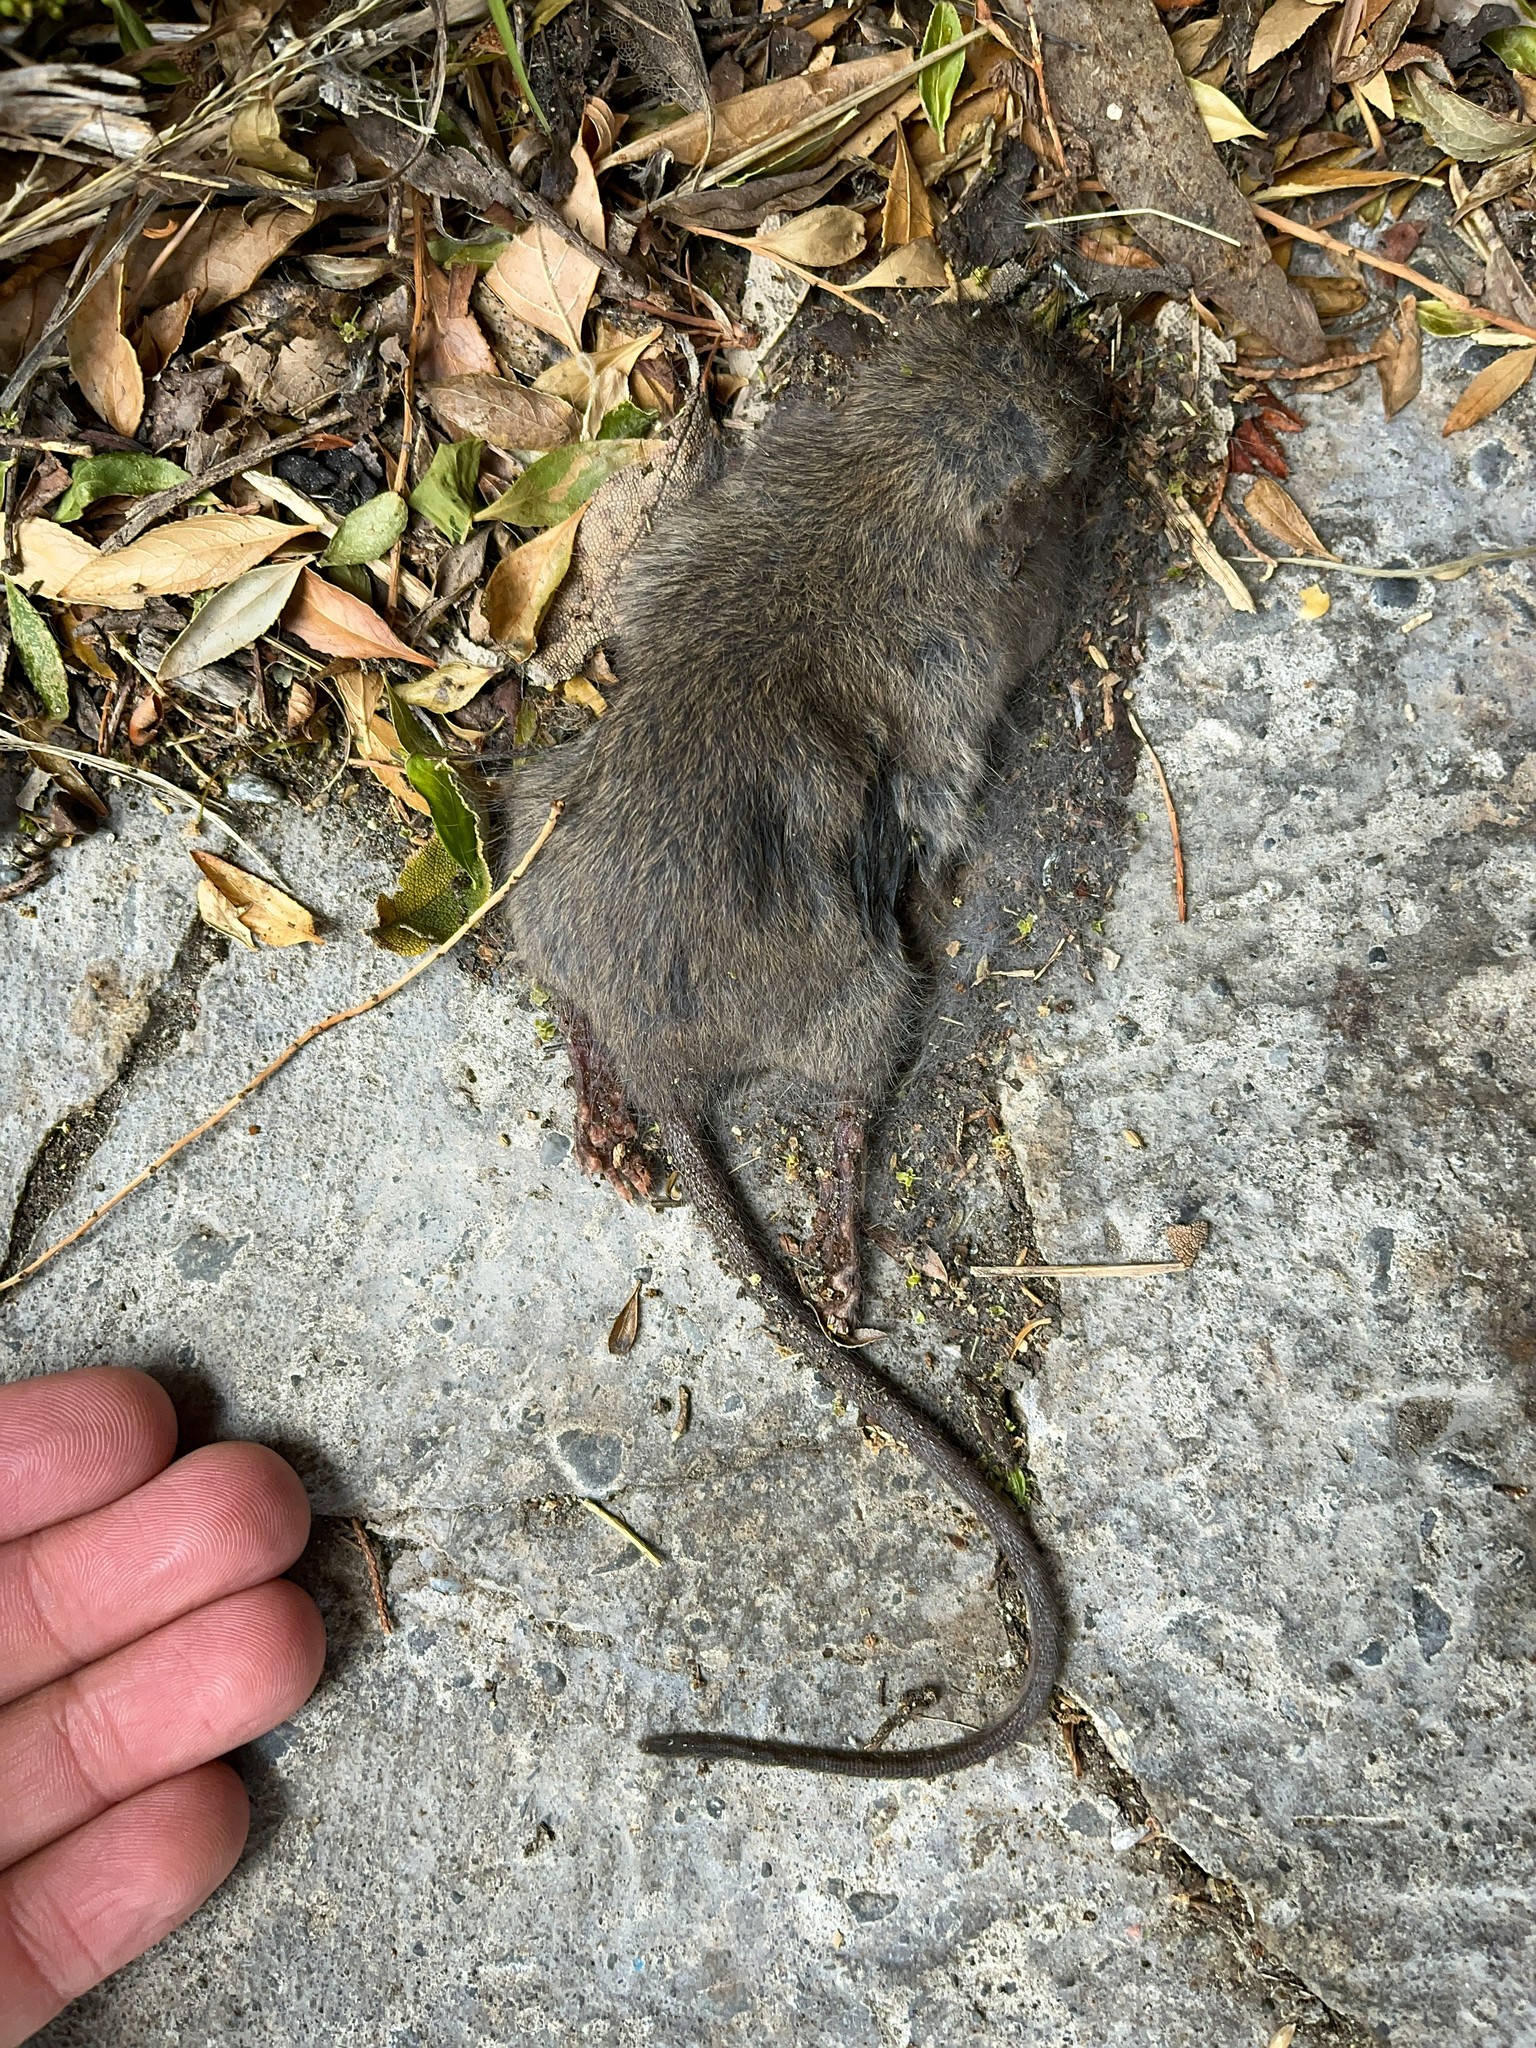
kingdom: Animalia
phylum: Chordata
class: Mammalia
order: Rodentia
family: Muridae
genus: Rattus
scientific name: Rattus rattus
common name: Black rat
